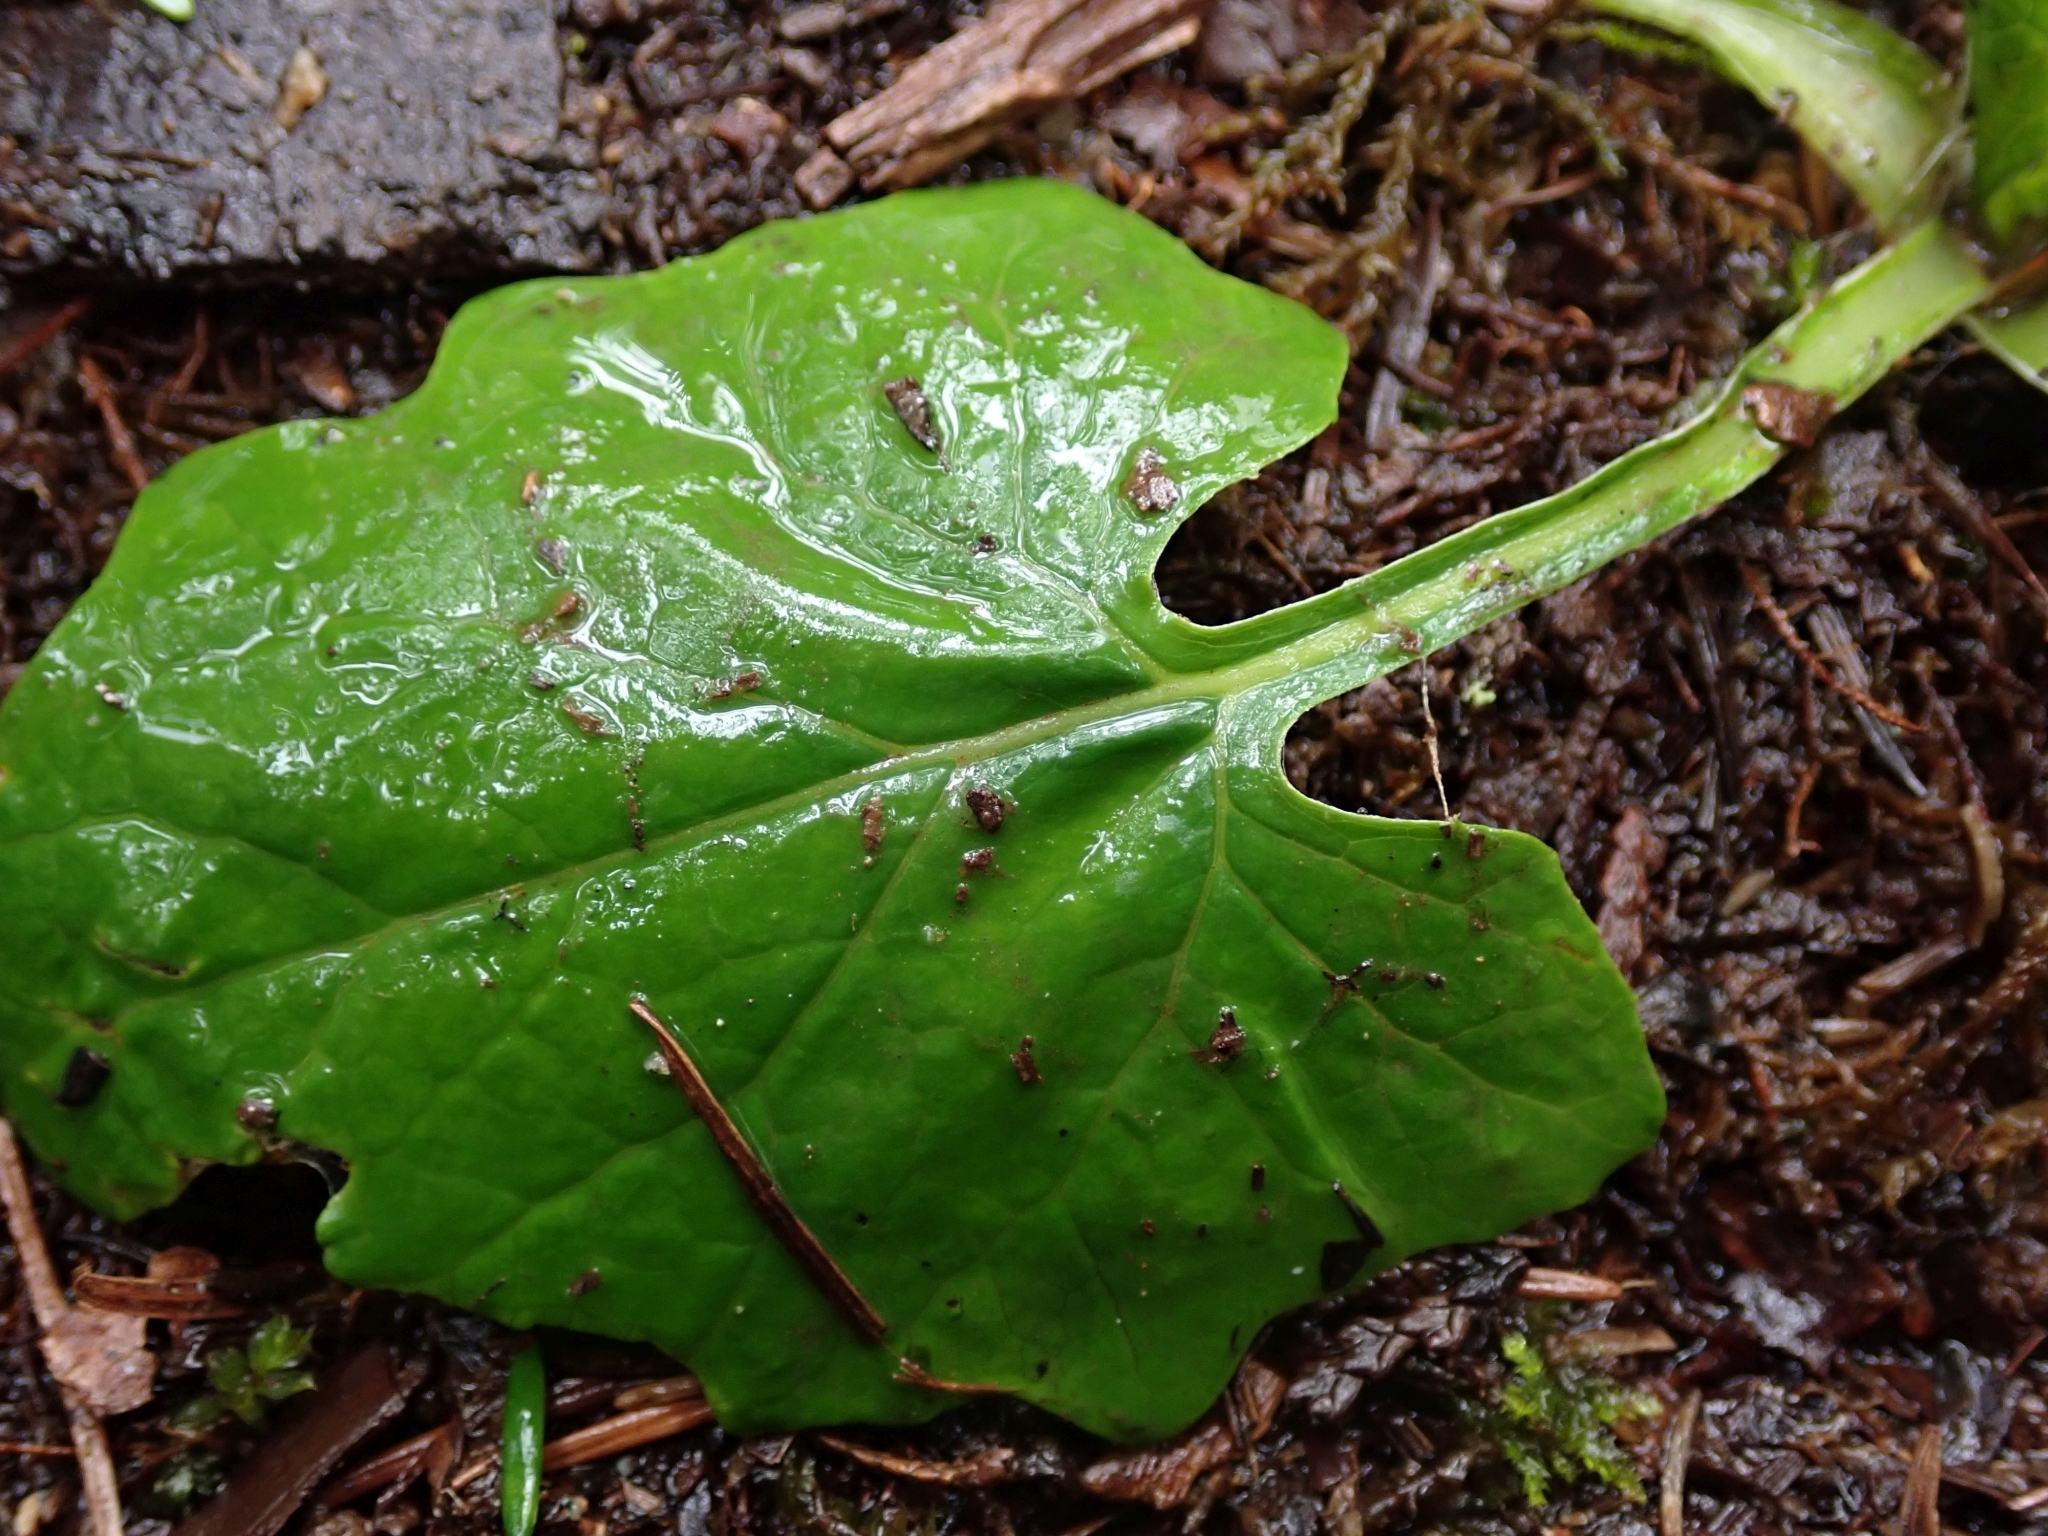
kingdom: Plantae
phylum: Tracheophyta
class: Magnoliopsida
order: Asterales
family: Asteraceae
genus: Adenocaulon
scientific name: Adenocaulon bicolor
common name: Trailplant
